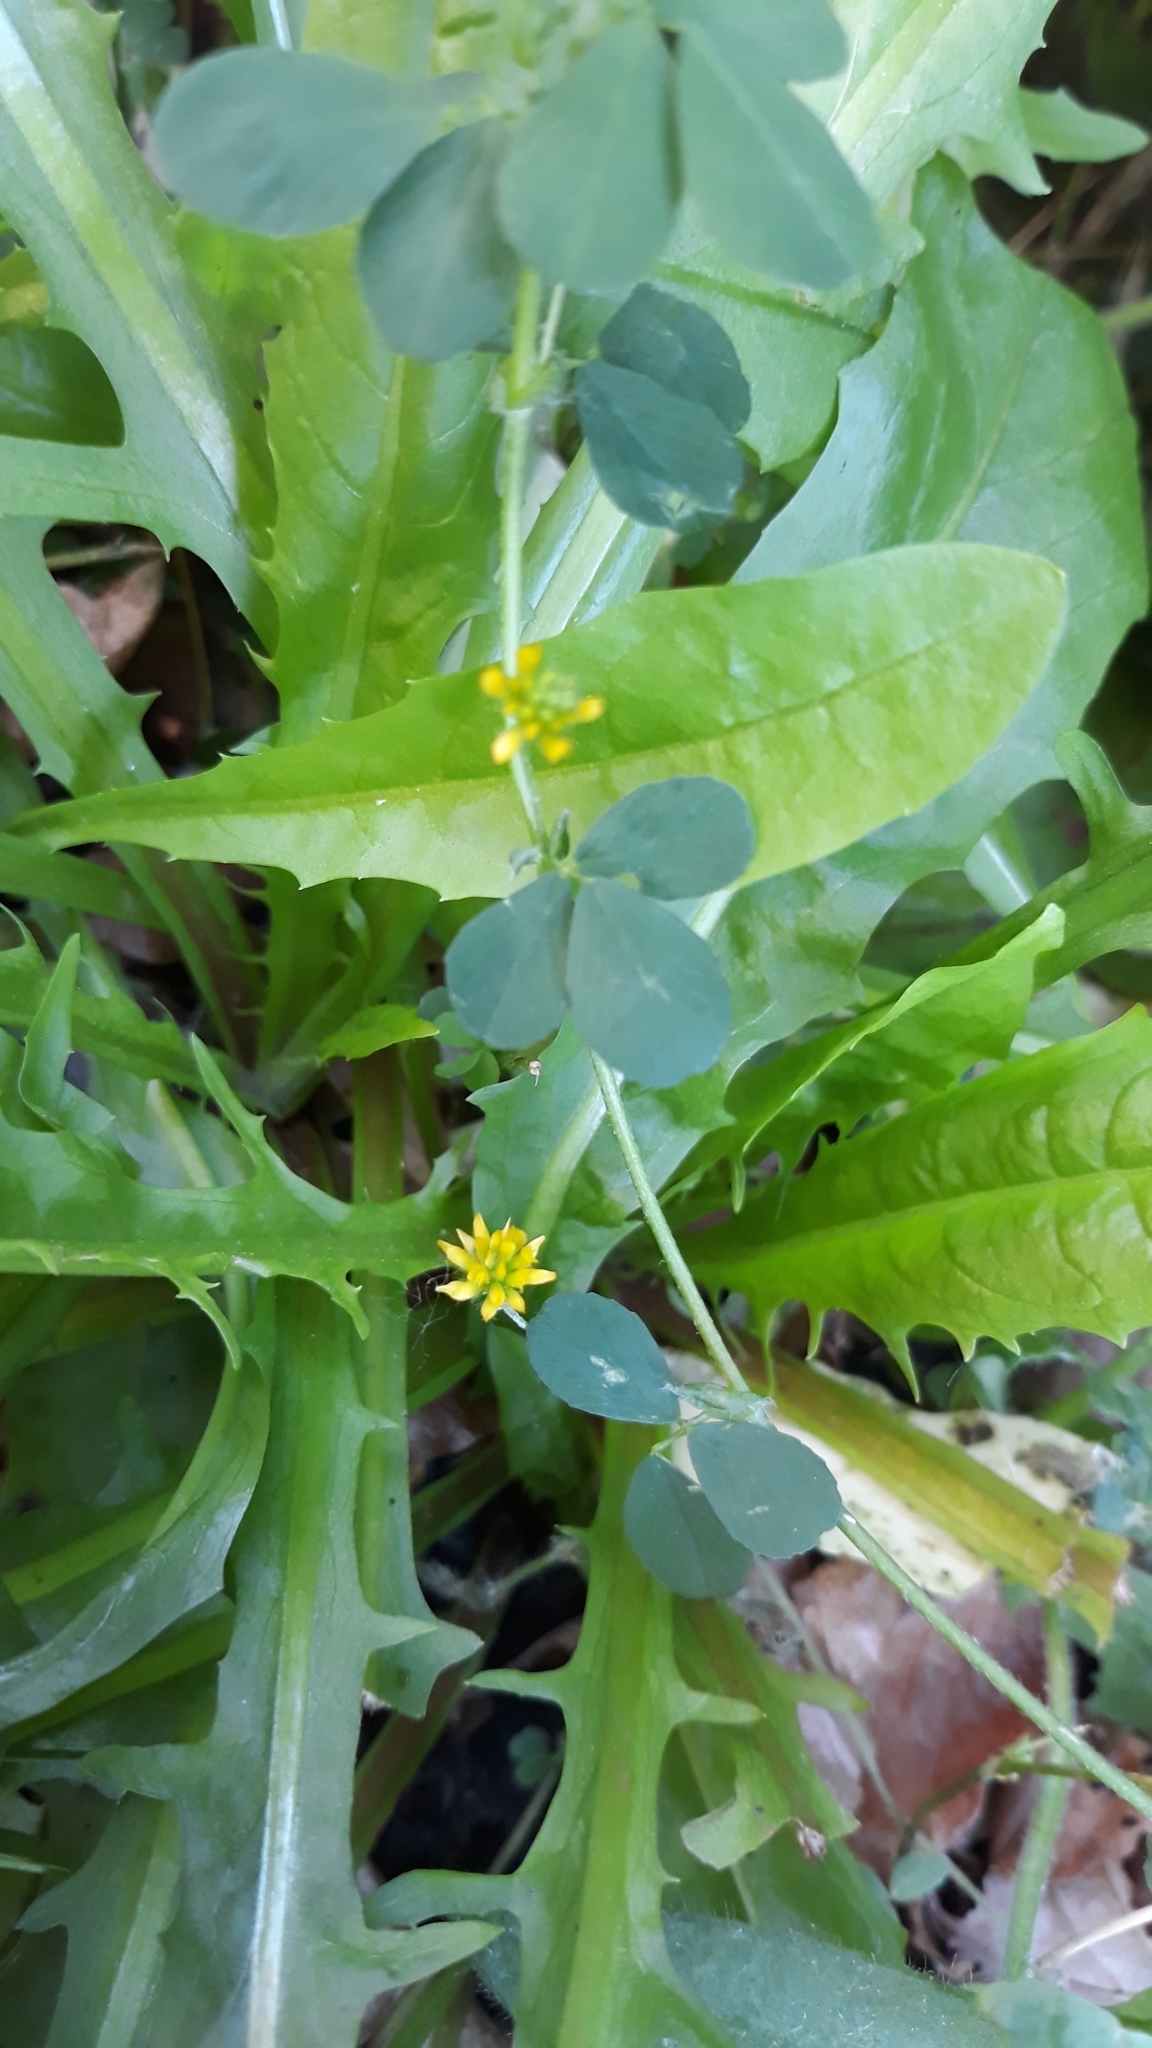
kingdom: Plantae
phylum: Tracheophyta
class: Magnoliopsida
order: Fabales
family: Fabaceae
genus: Trifolium
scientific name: Trifolium dubium
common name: Suckling clover
